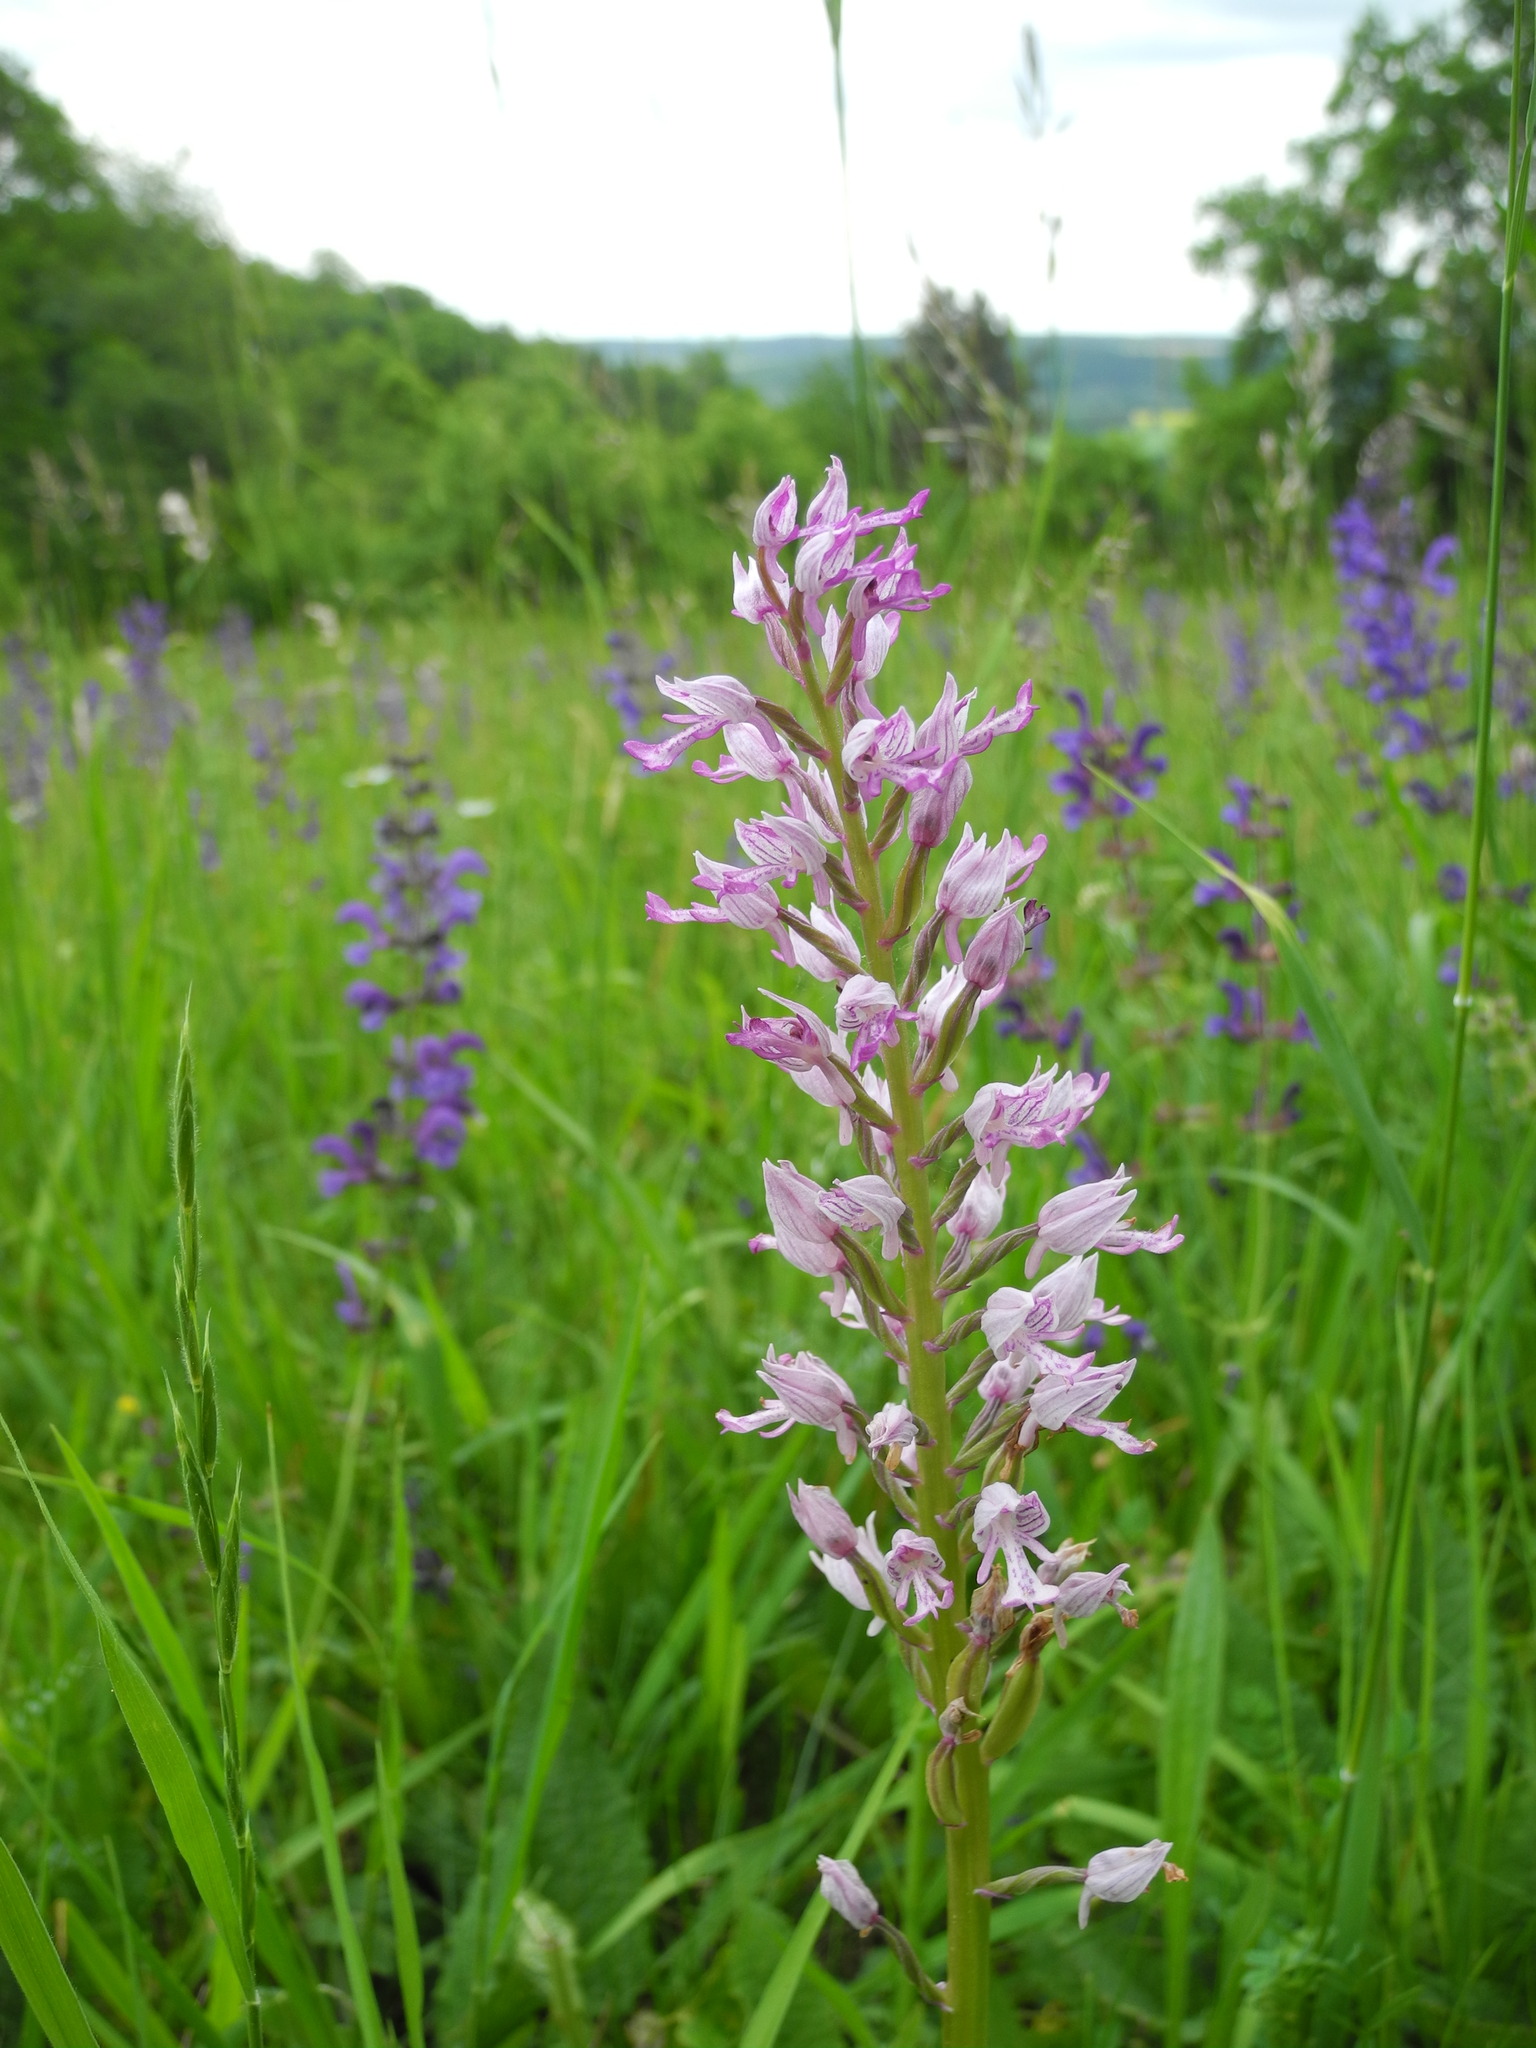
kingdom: Plantae
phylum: Tracheophyta
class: Liliopsida
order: Asparagales
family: Orchidaceae
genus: Orchis
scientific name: Orchis militaris
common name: Military orchid
